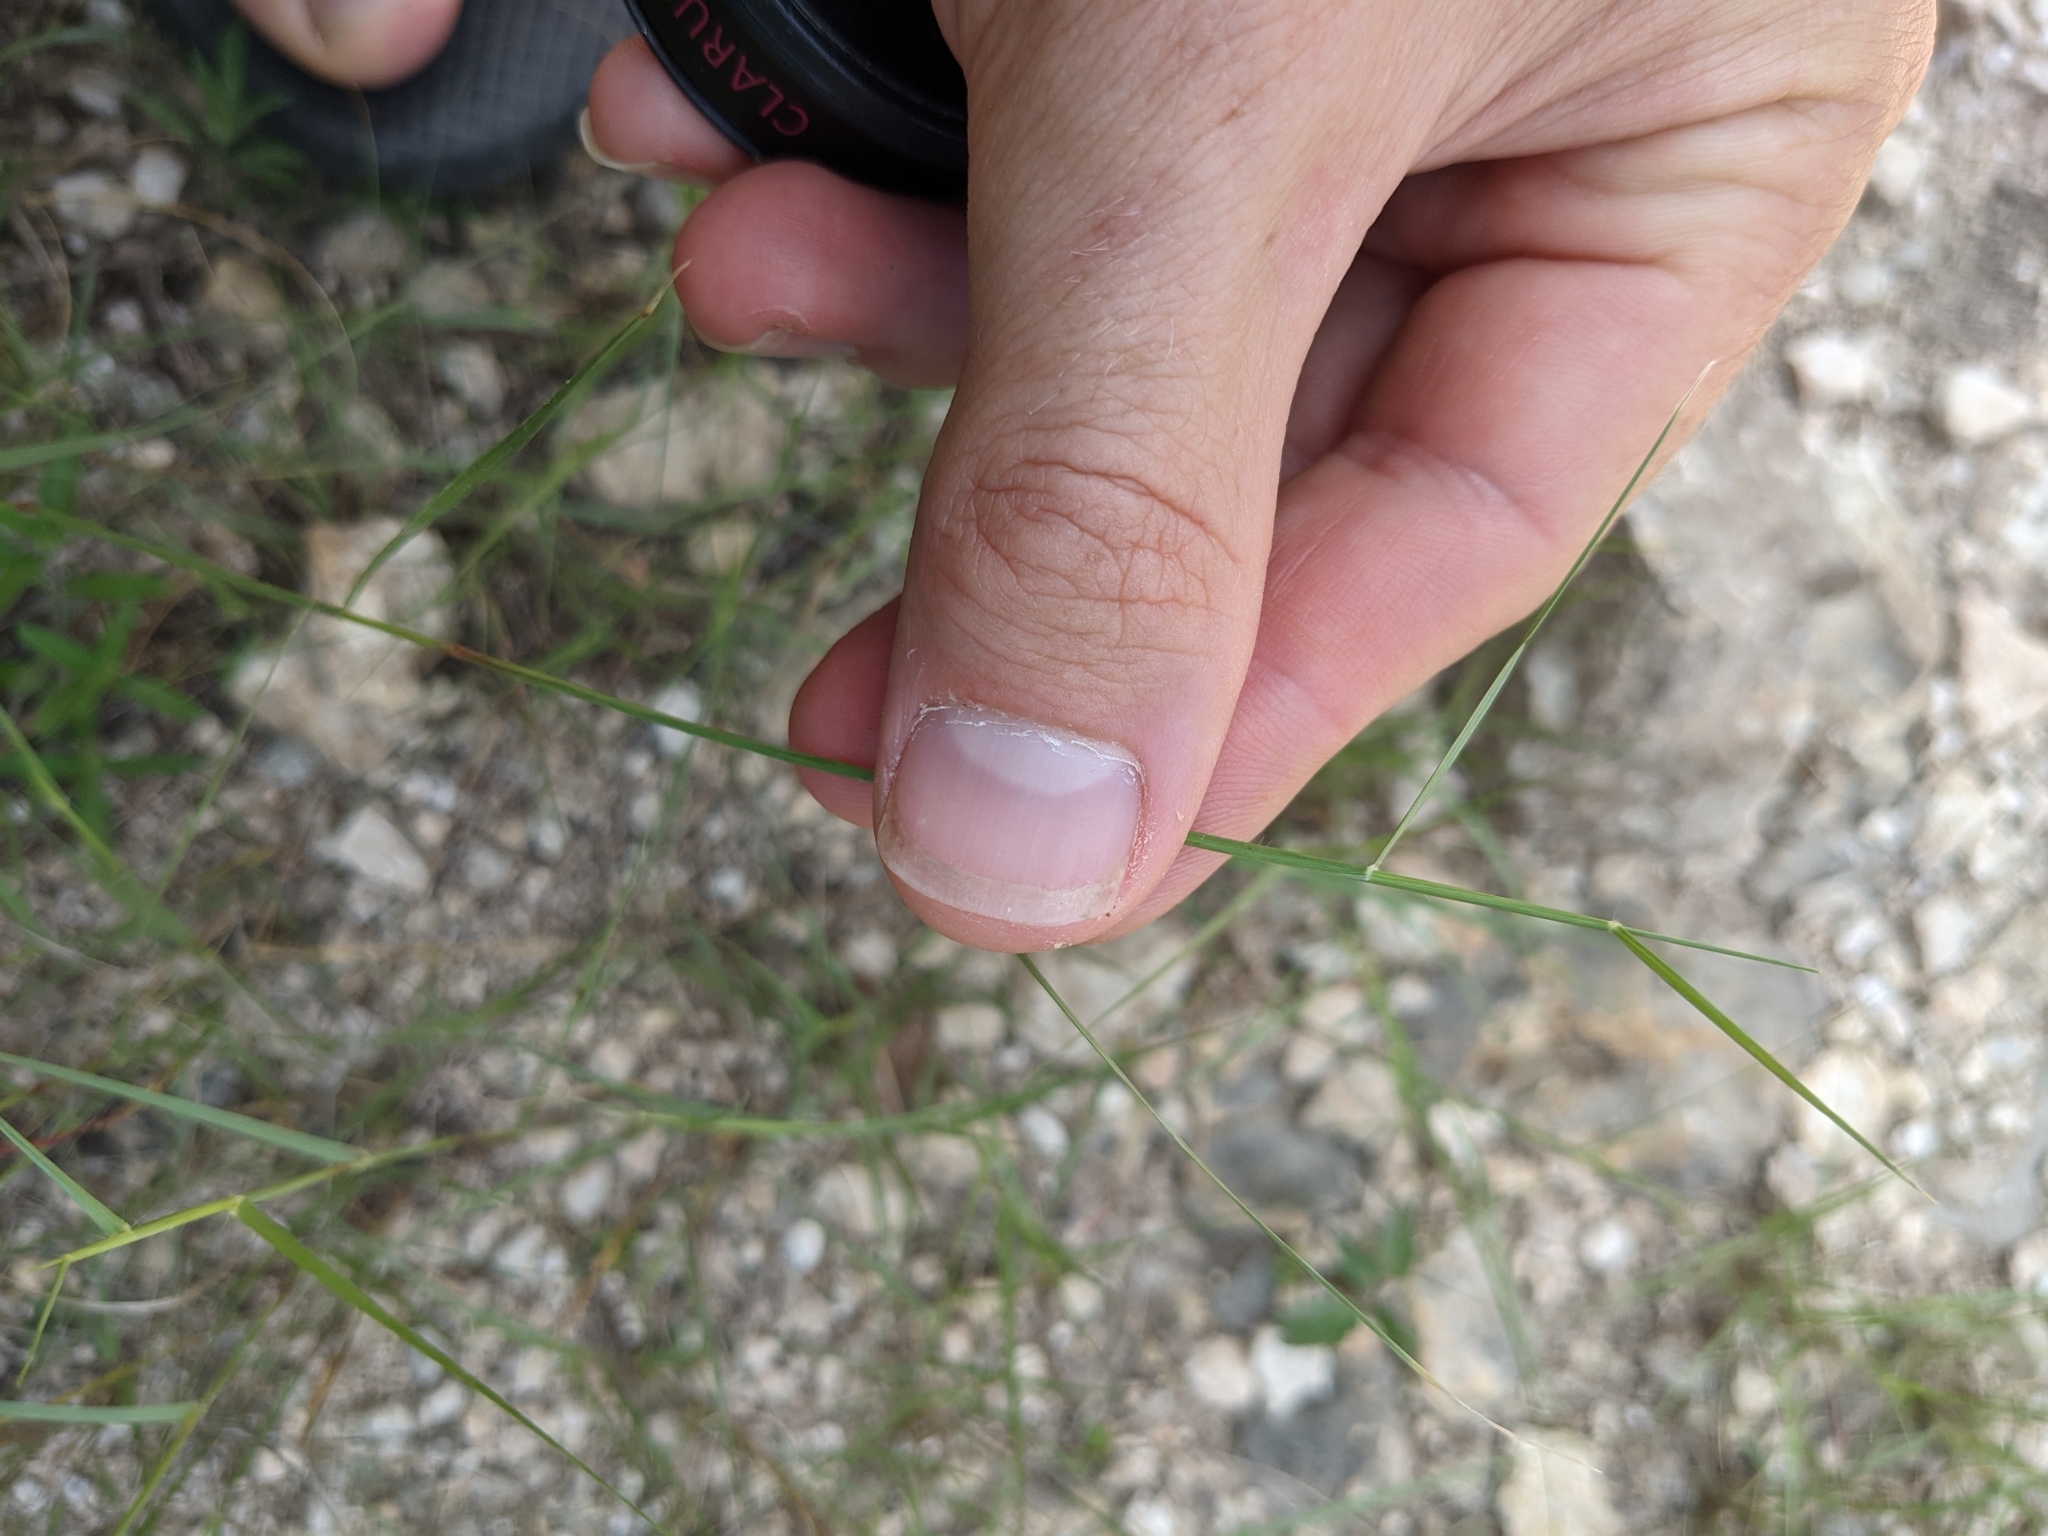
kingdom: Plantae
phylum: Tracheophyta
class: Liliopsida
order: Poales
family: Poaceae
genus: Sporobolus
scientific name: Sporobolus vaginiflorus
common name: Poverty dropseed
